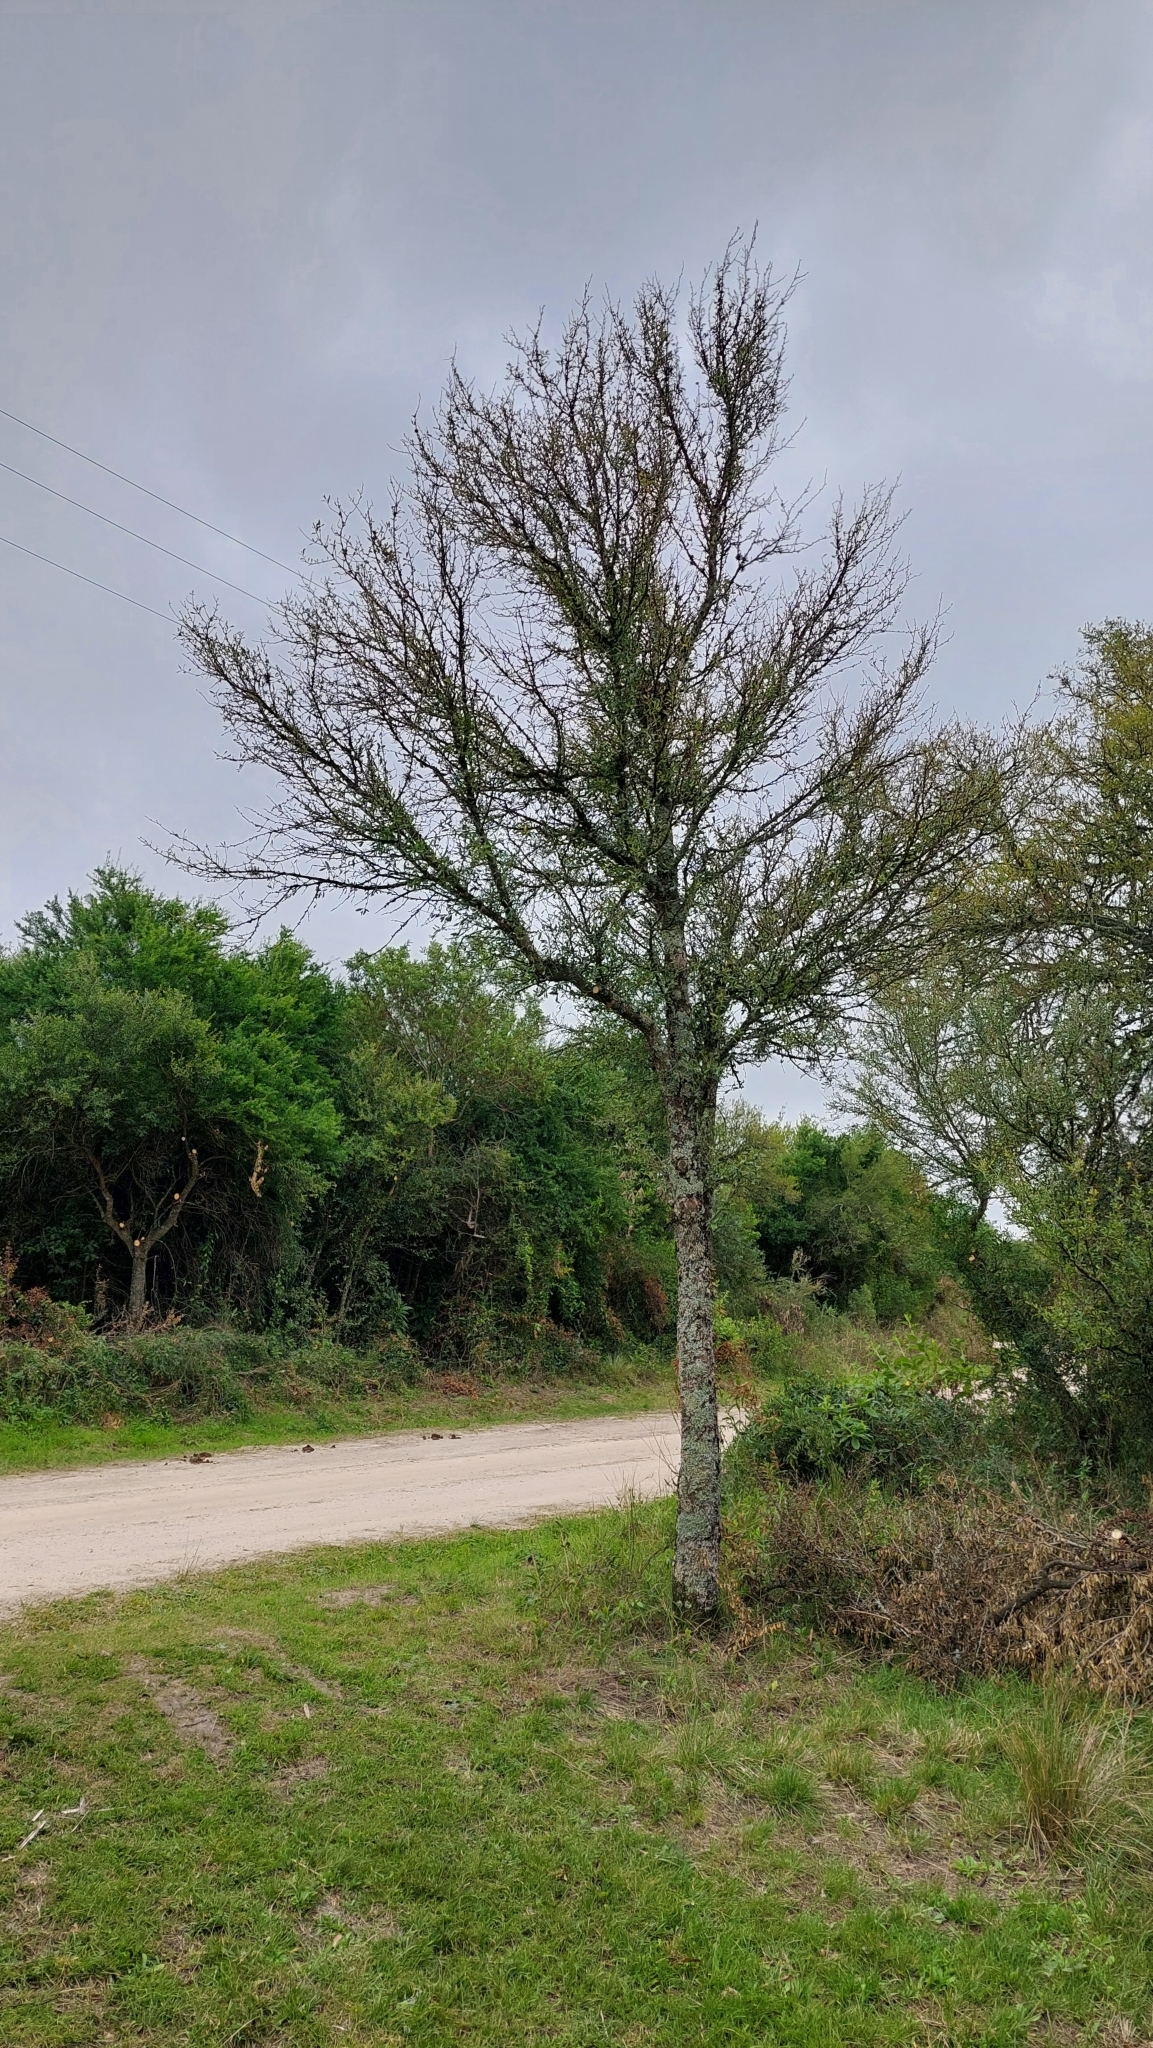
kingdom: Plantae
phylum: Tracheophyta
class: Magnoliopsida
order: Santalales
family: Cervantesiaceae
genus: Acanthosyris
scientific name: Acanthosyris spinescens
